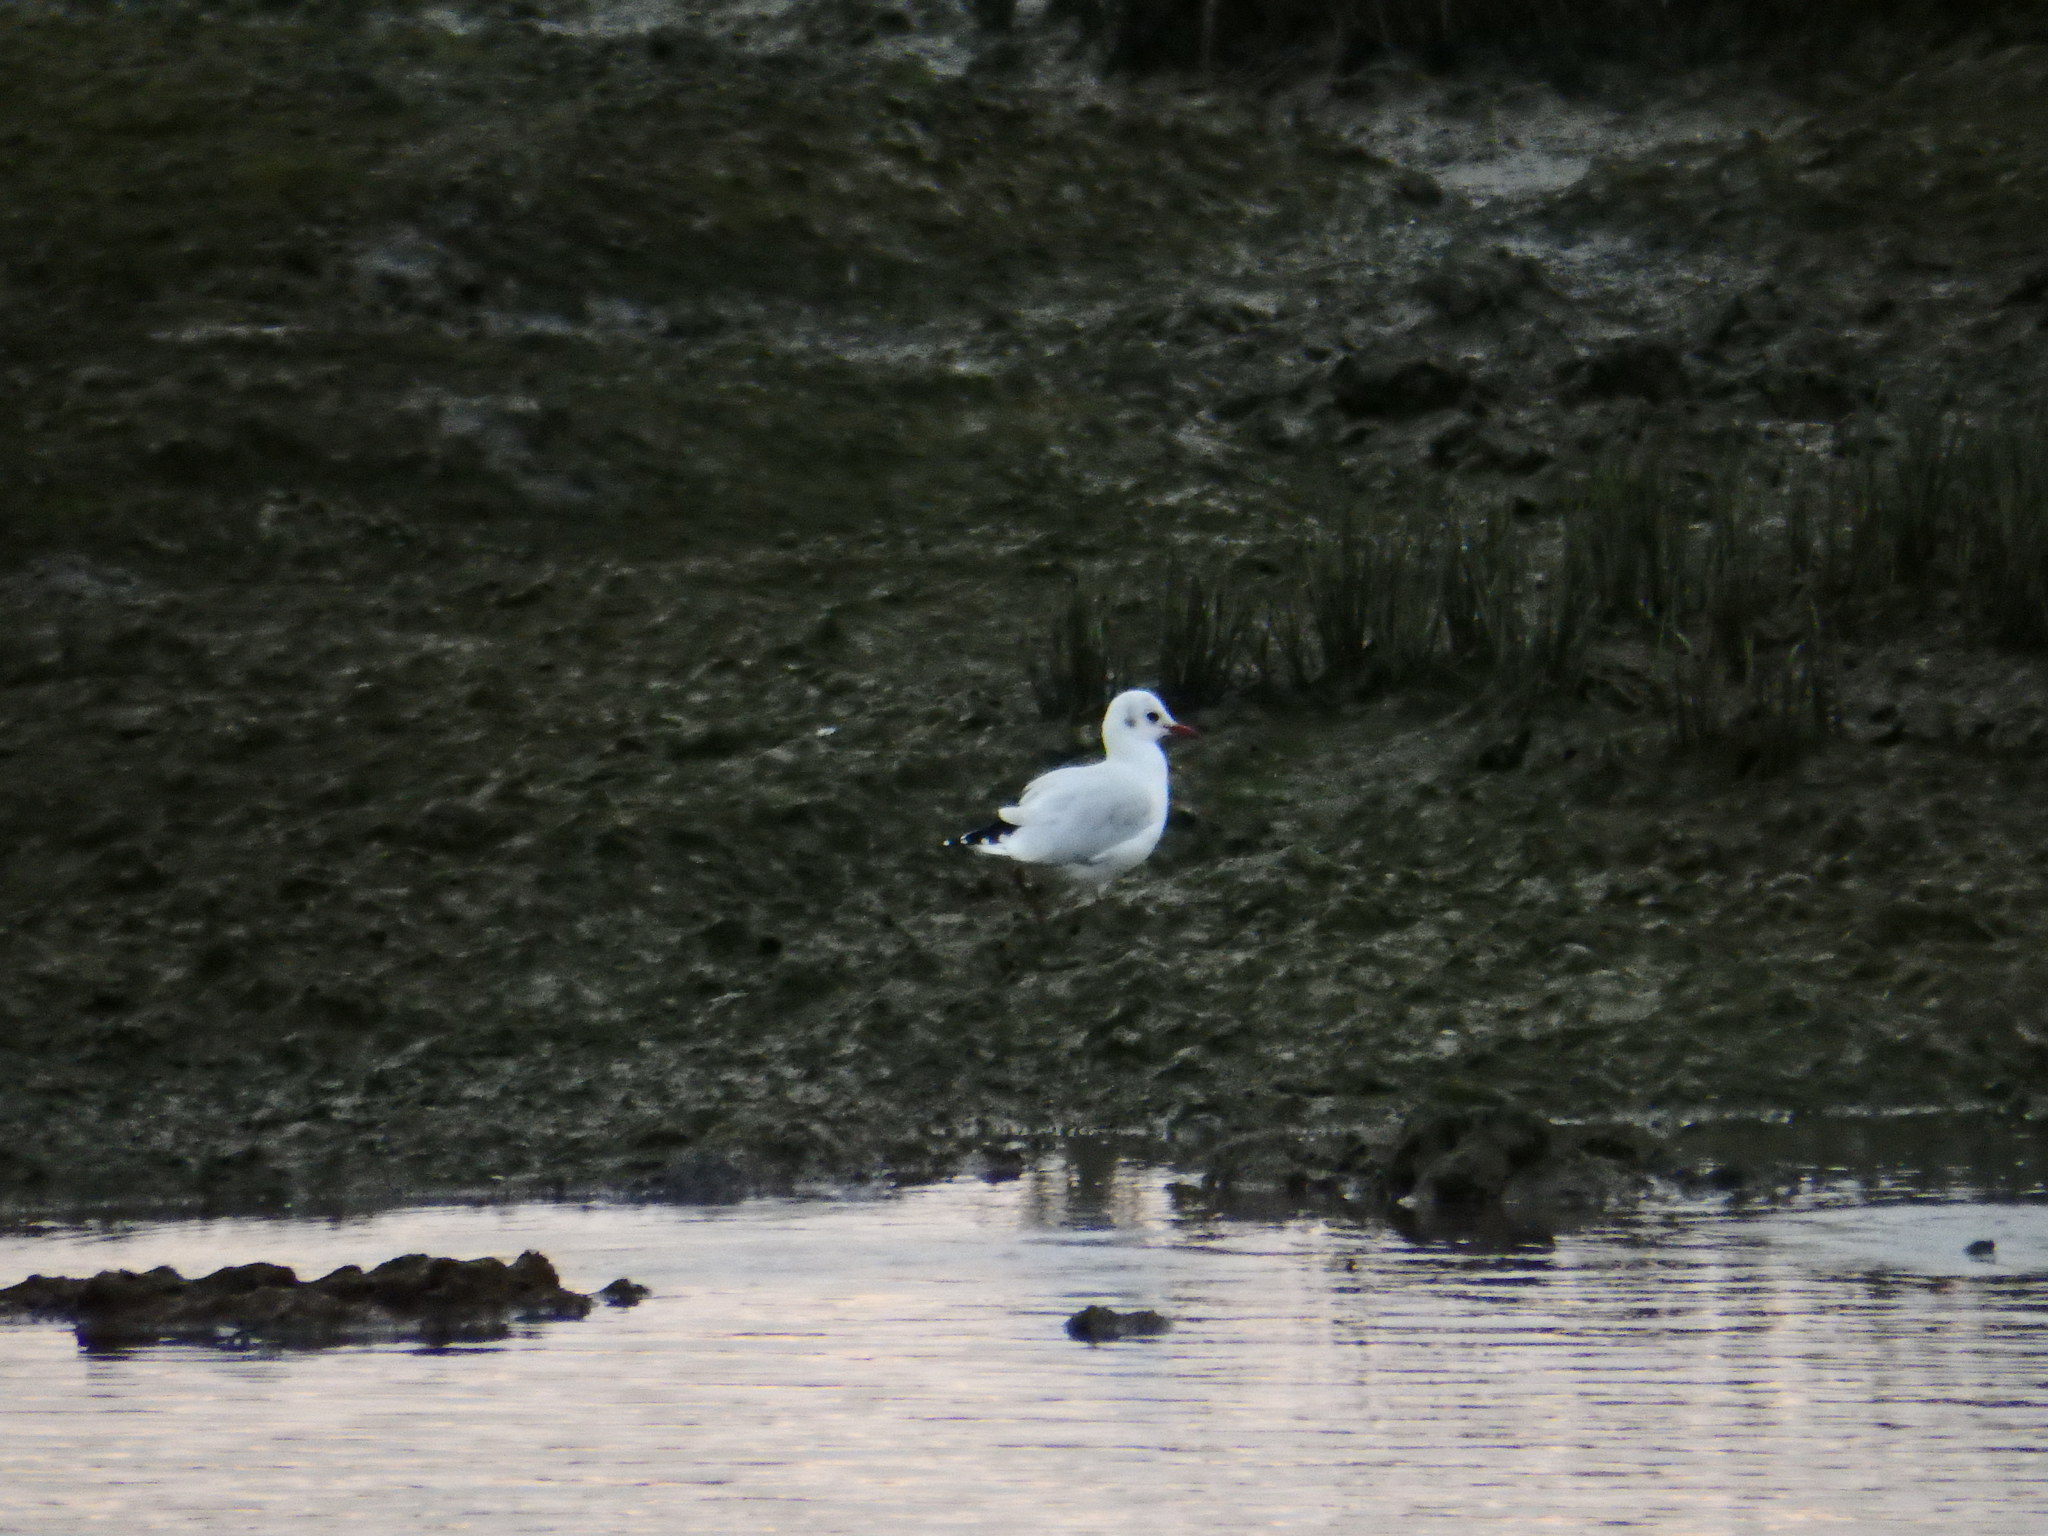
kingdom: Animalia
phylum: Chordata
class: Aves
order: Charadriiformes
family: Laridae
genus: Chroicocephalus
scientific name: Chroicocephalus ridibundus
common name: Black-headed gull
